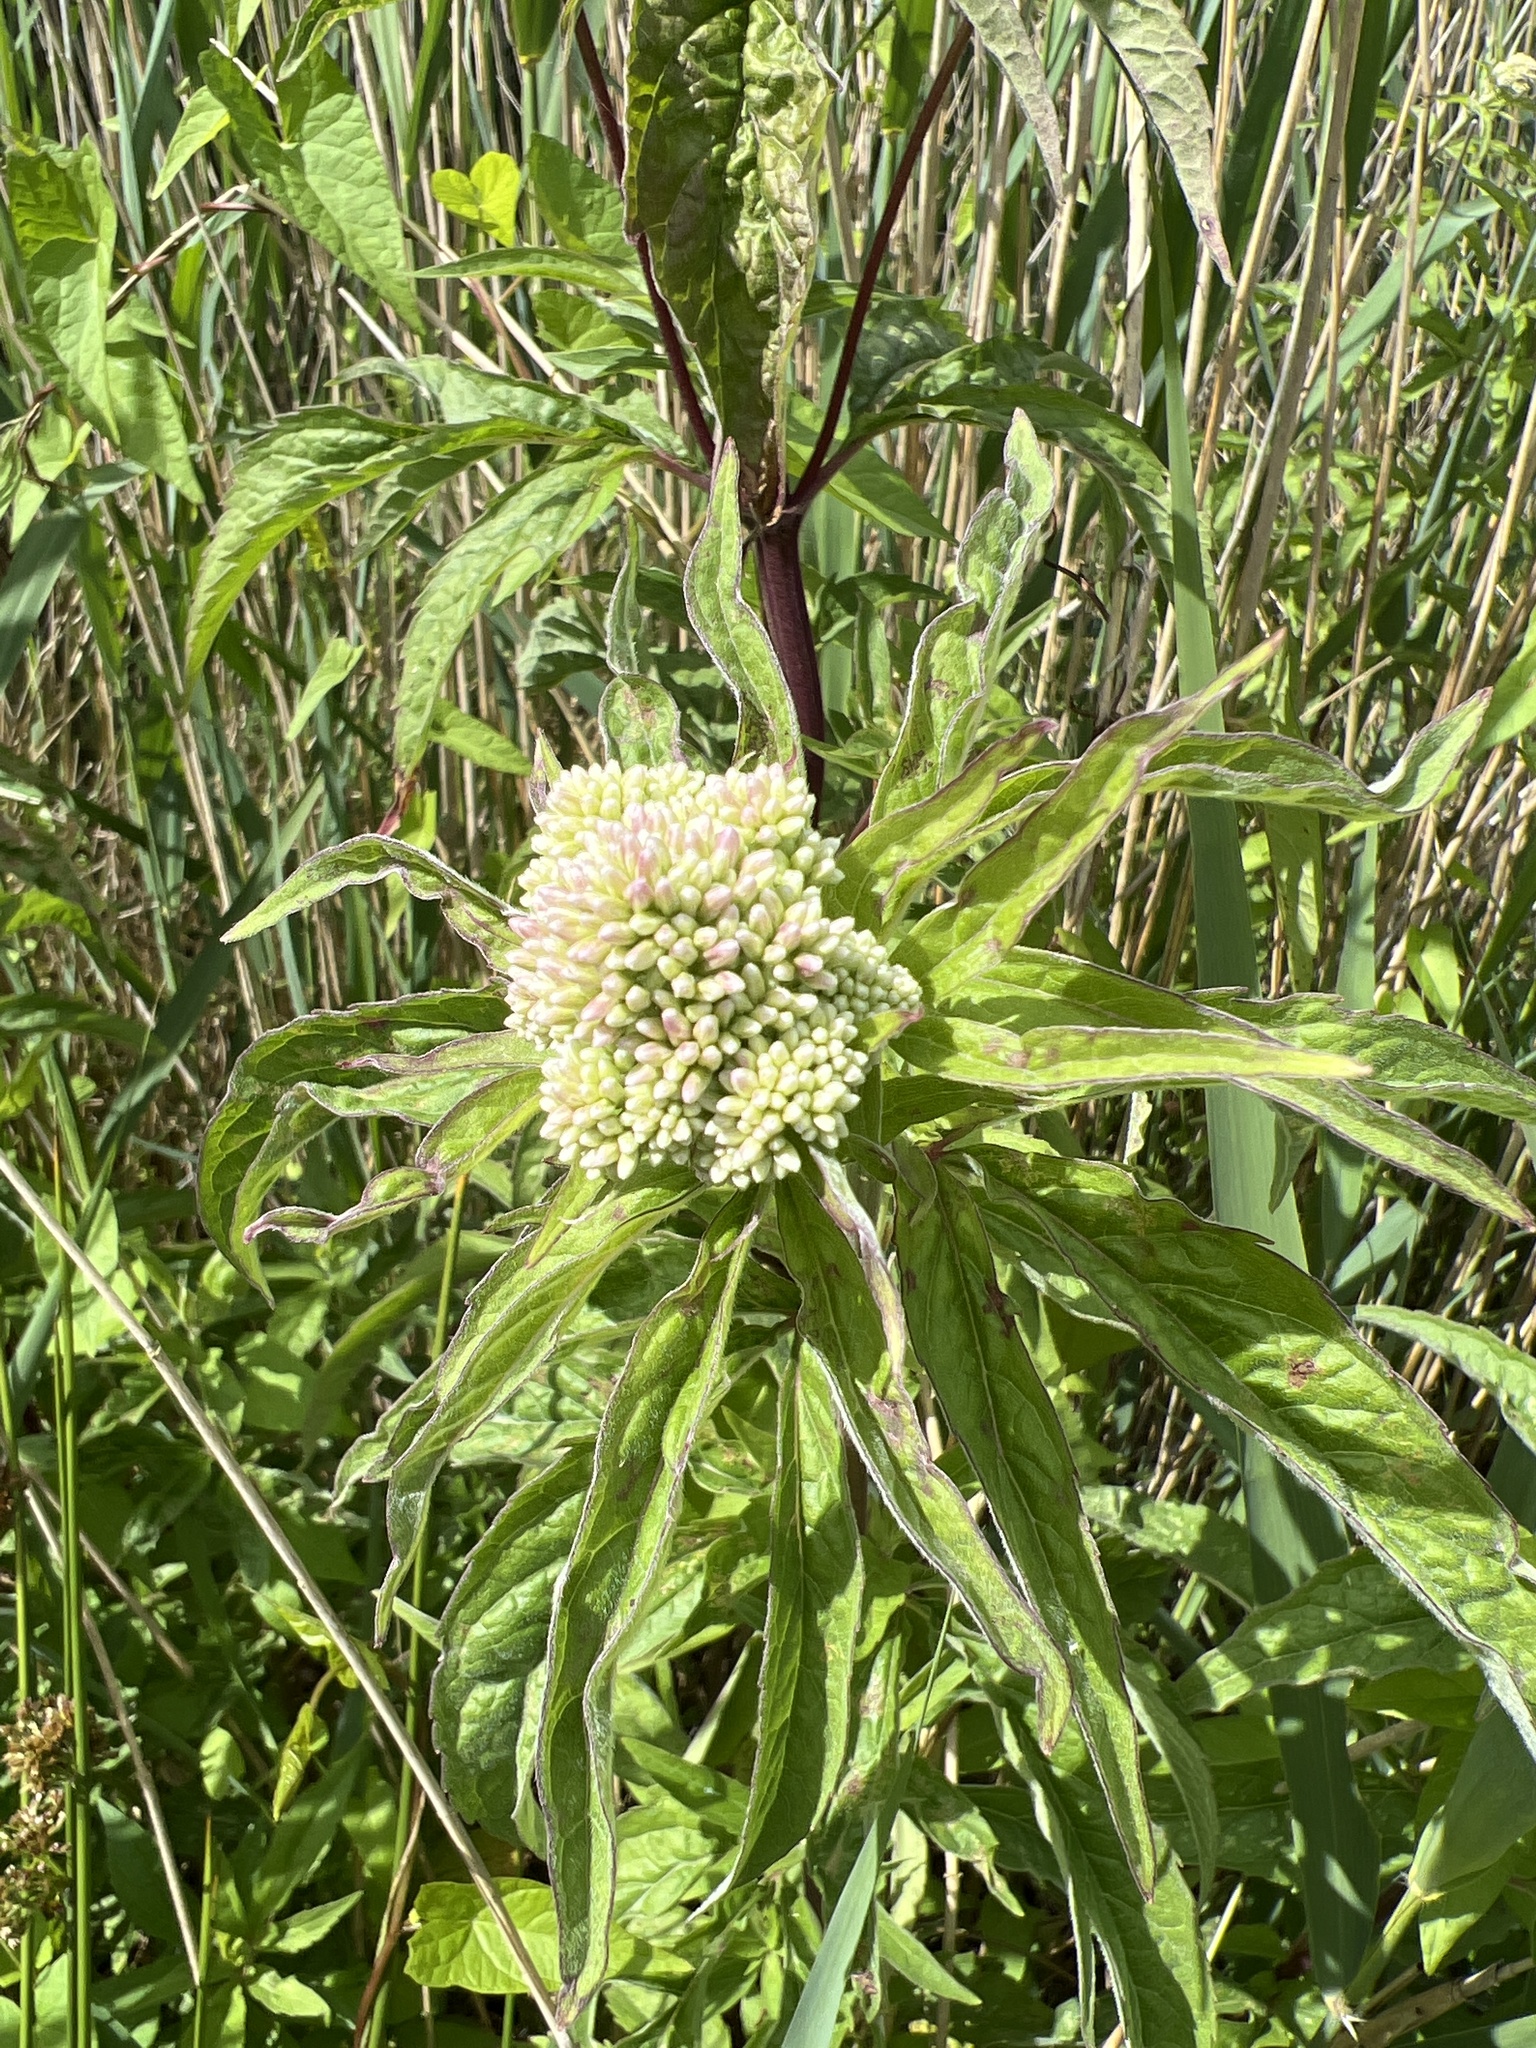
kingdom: Plantae
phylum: Tracheophyta
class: Magnoliopsida
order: Asterales
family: Asteraceae
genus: Eupatorium
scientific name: Eupatorium cannabinum
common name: Hemp-agrimony
